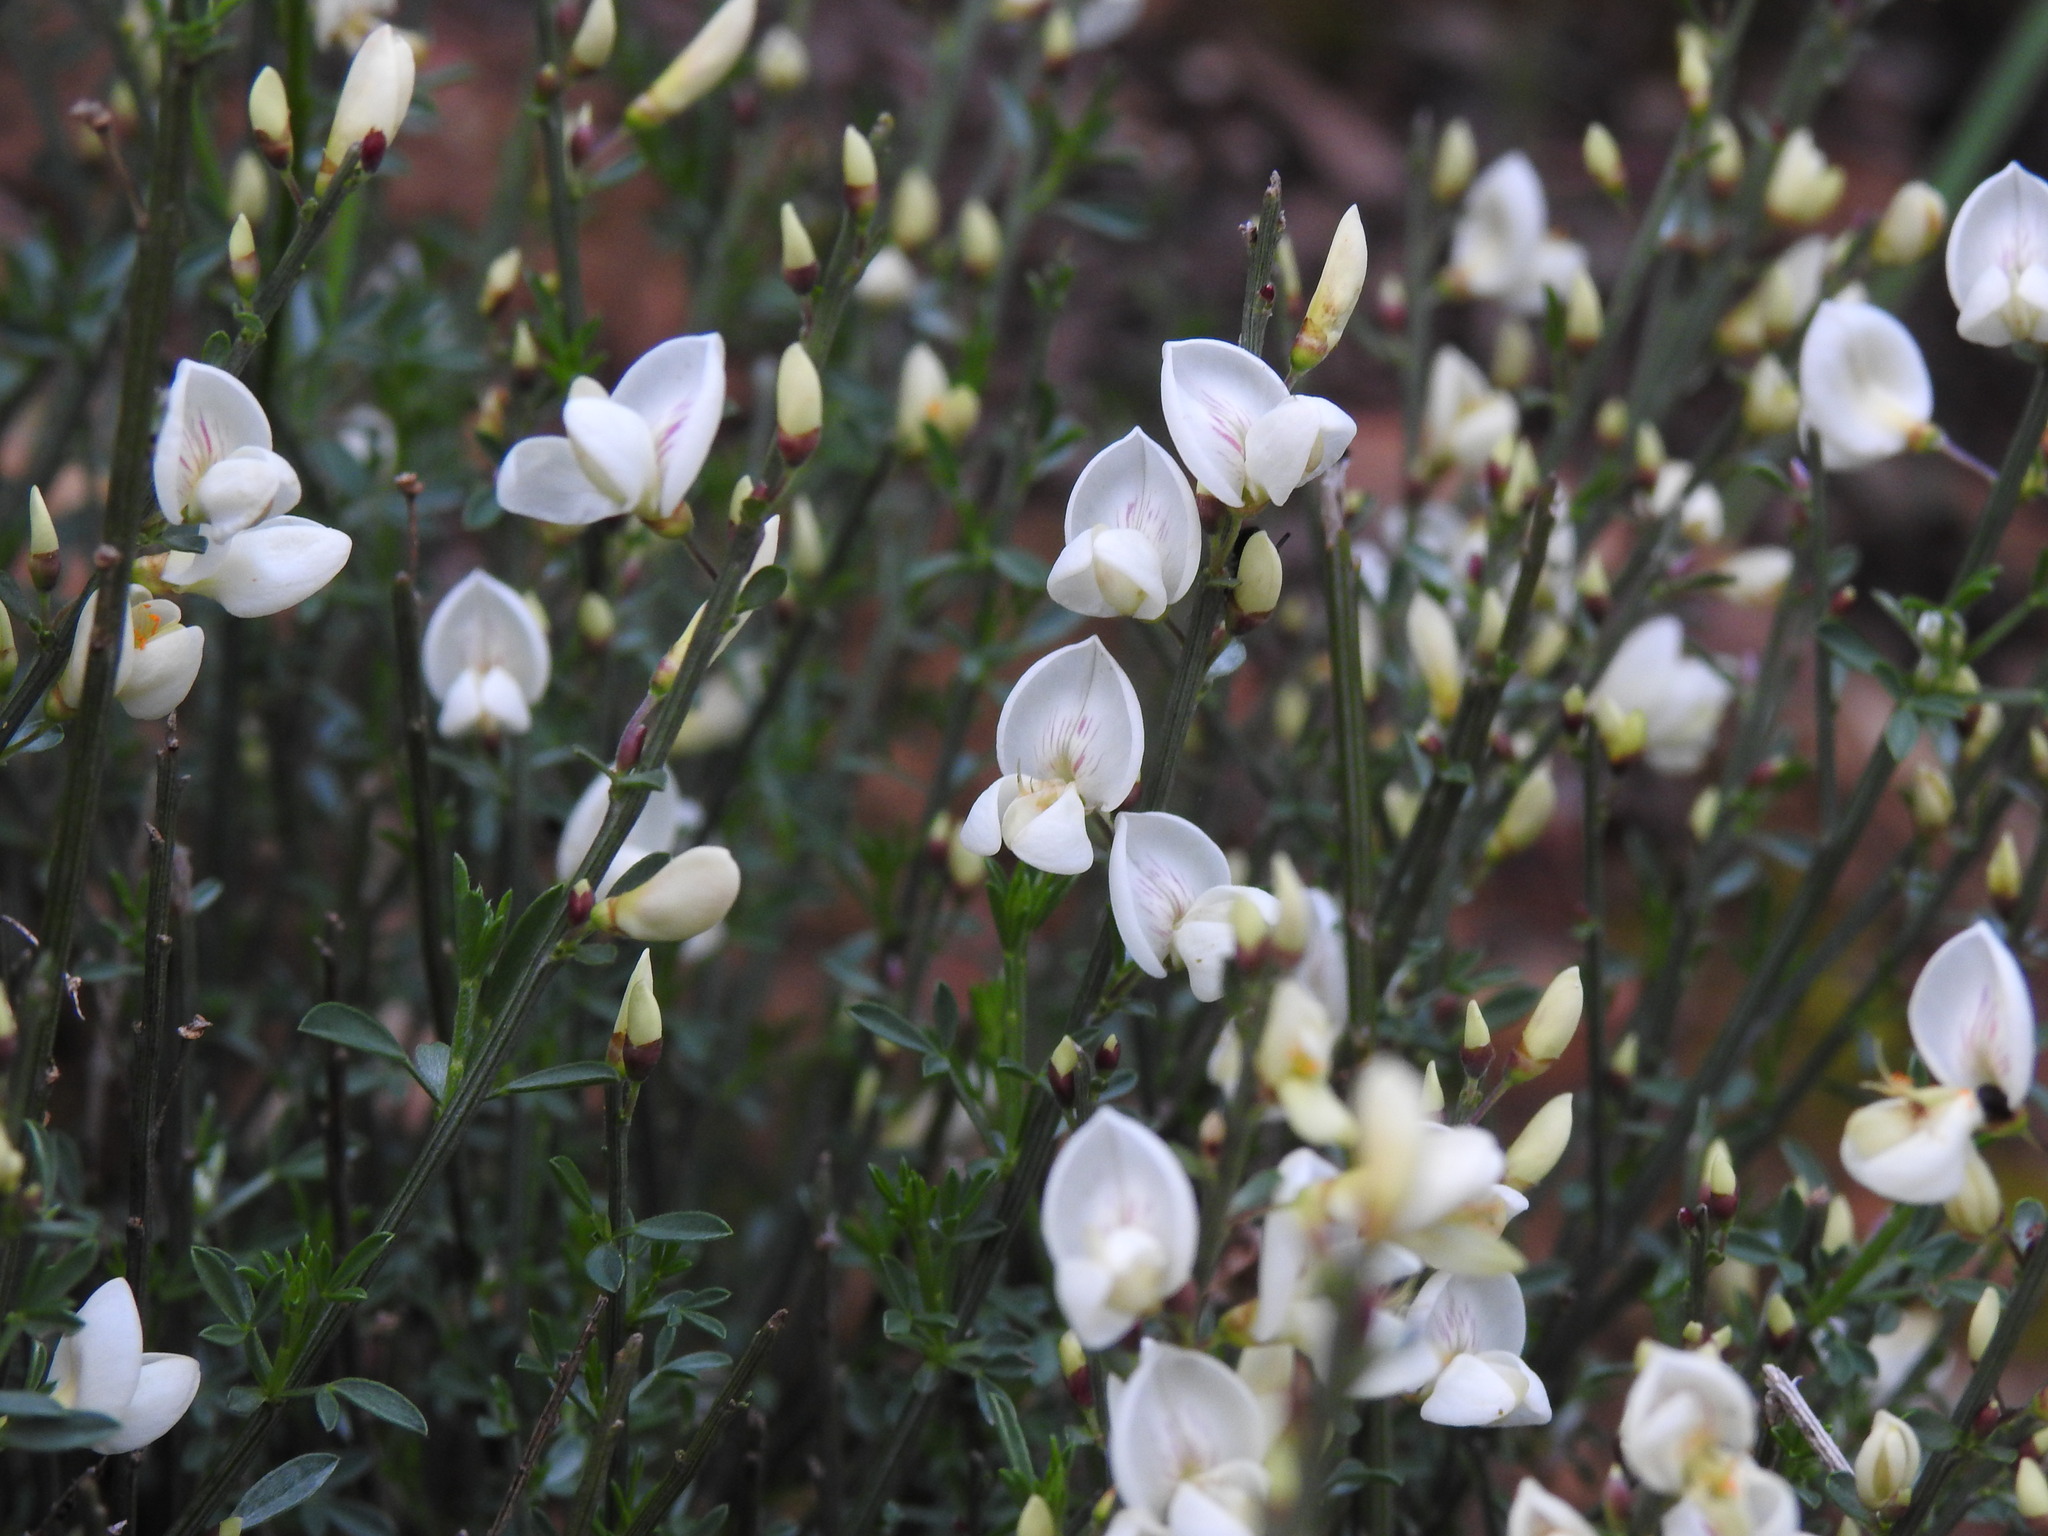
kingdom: Plantae
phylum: Tracheophyta
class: Magnoliopsida
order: Fabales
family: Fabaceae
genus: Cytisus
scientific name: Cytisus multiflorus
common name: White broom
